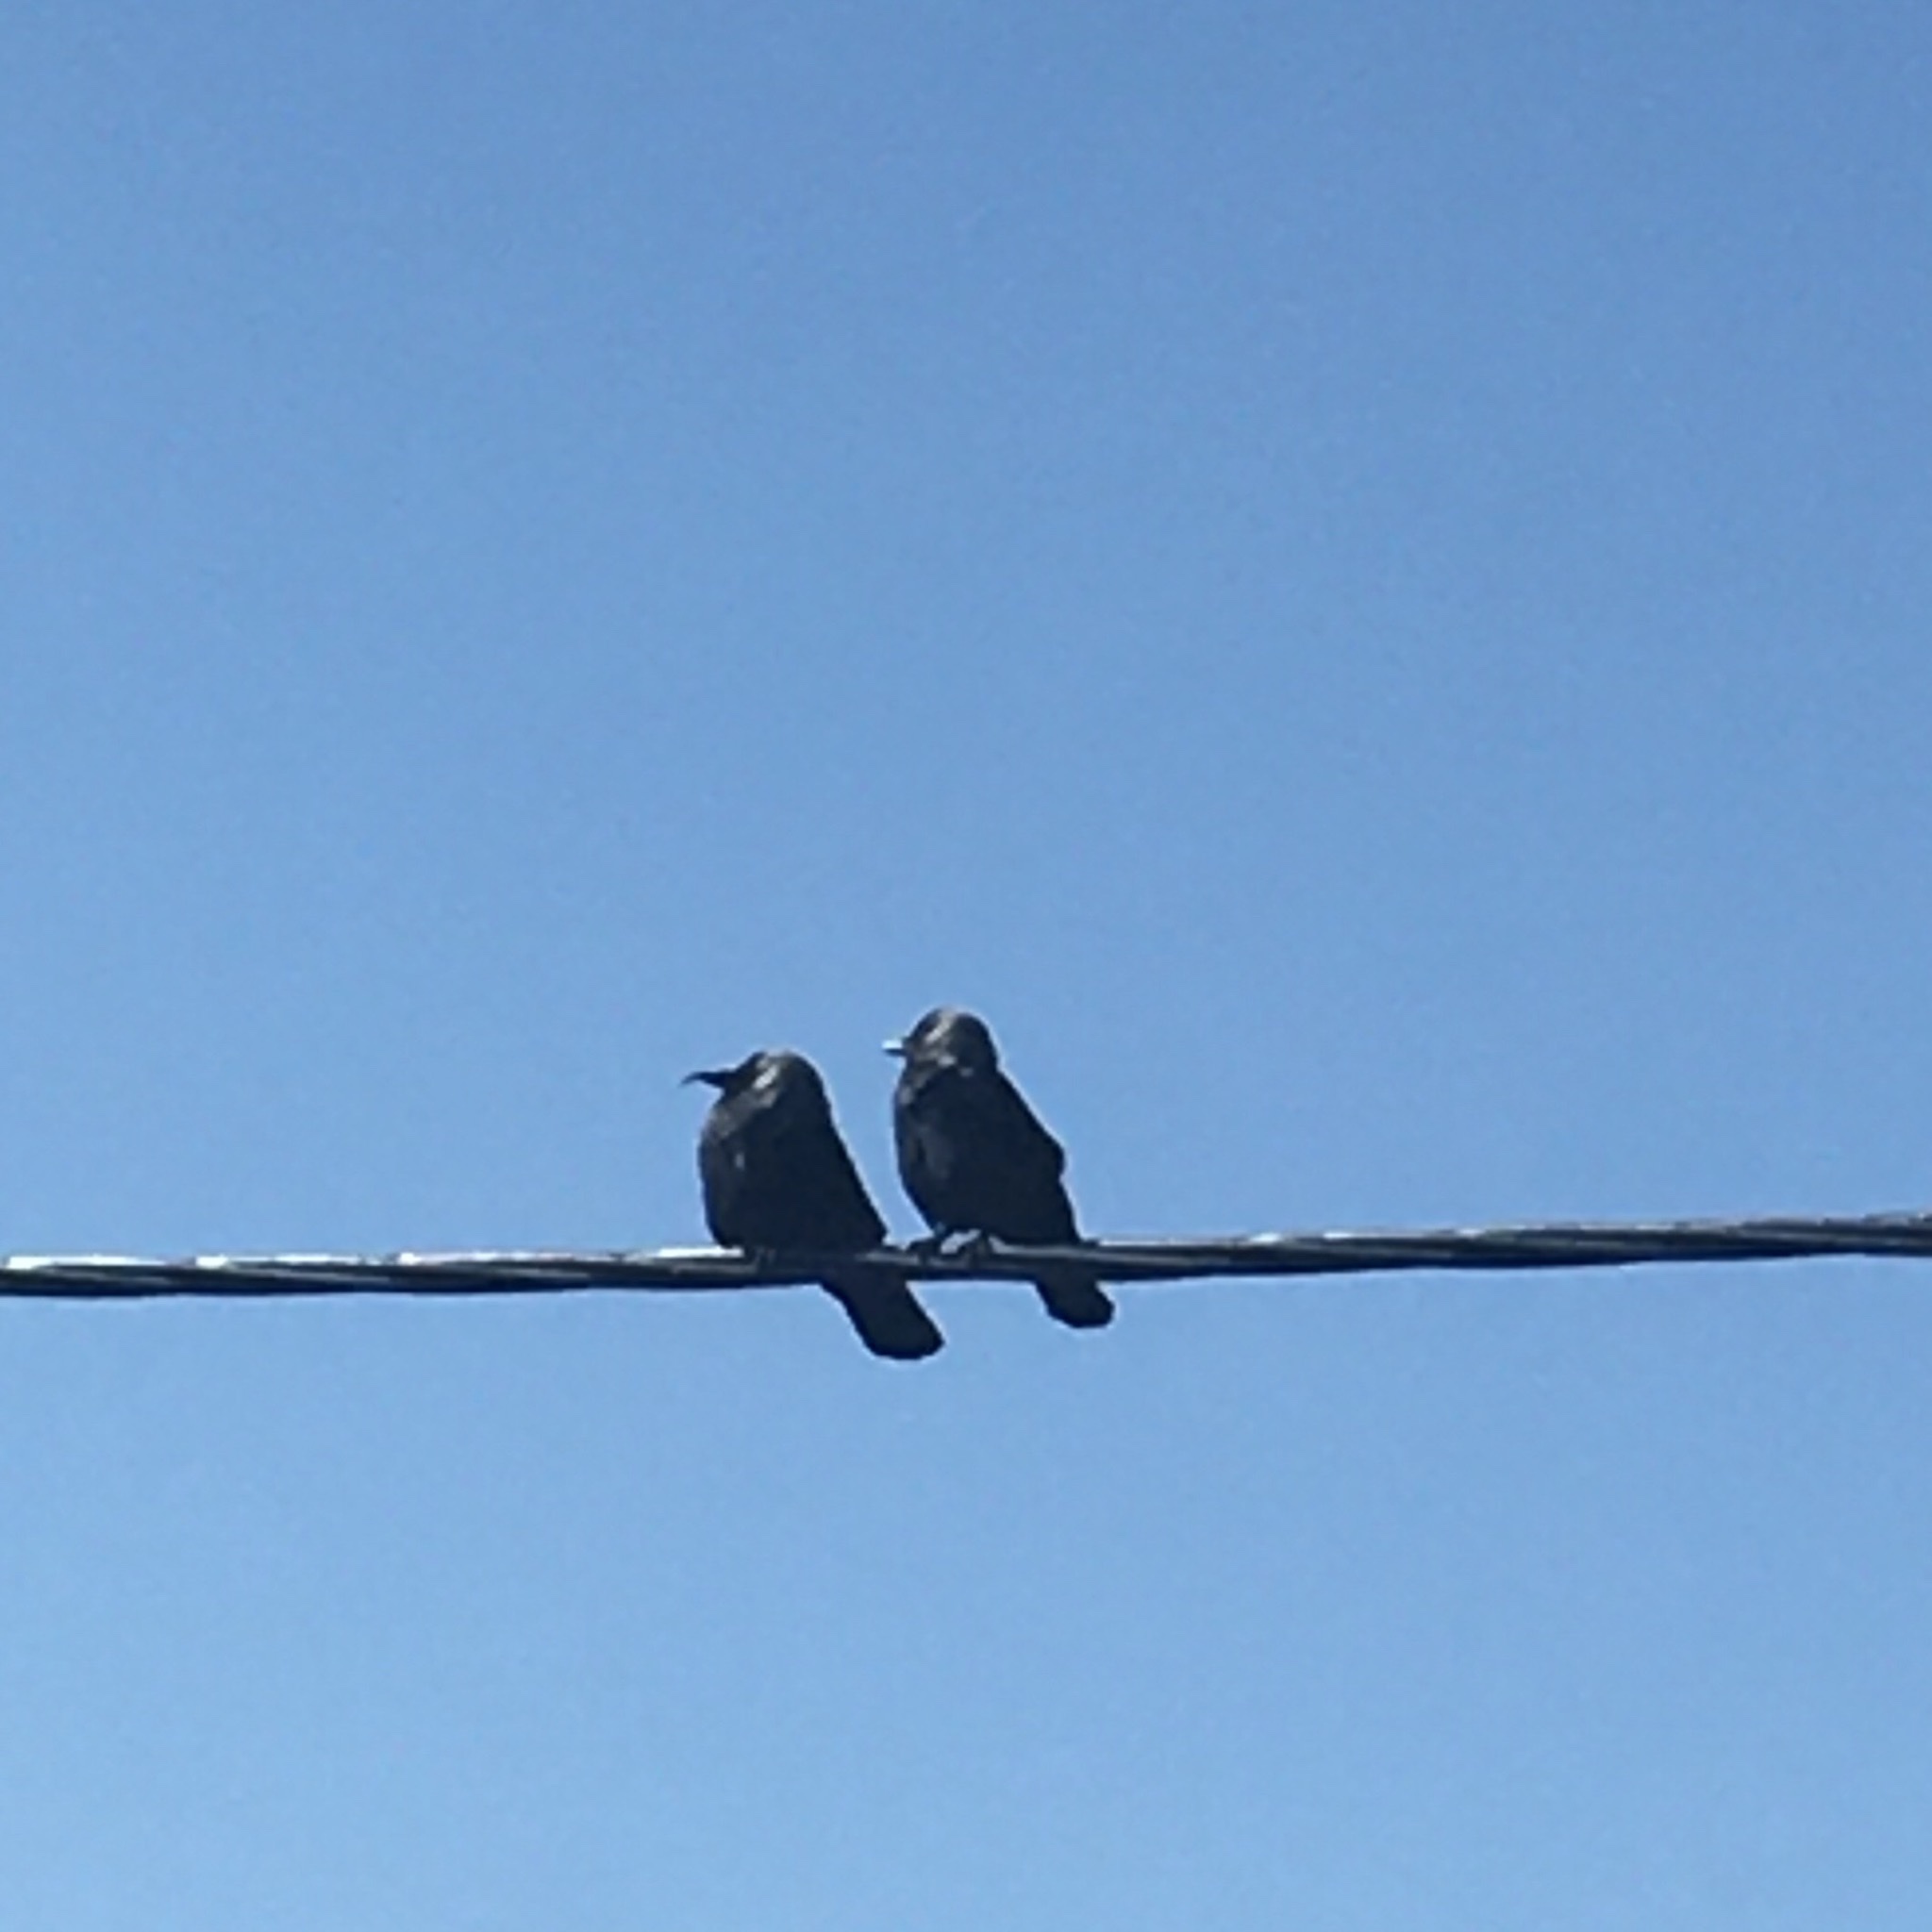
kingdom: Animalia
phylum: Chordata
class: Aves
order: Passeriformes
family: Corvidae
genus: Coloeus
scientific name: Coloeus monedula
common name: Western jackdaw
